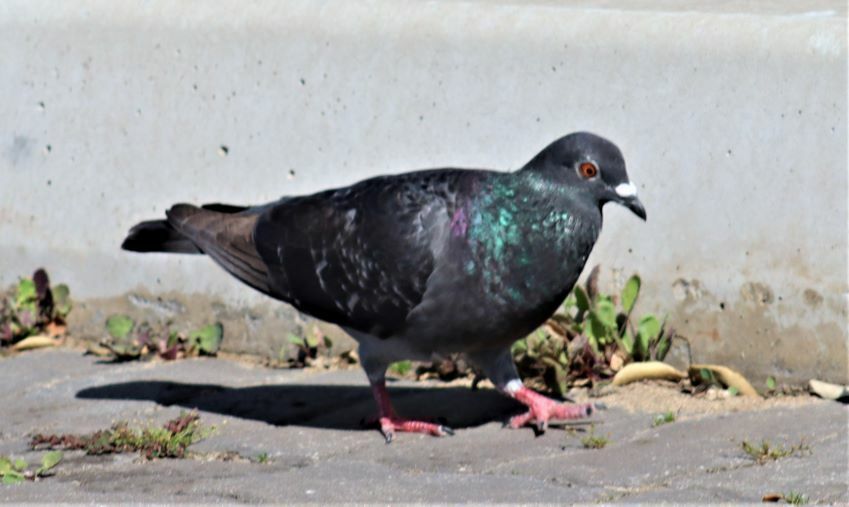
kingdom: Animalia
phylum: Chordata
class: Aves
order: Columbiformes
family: Columbidae
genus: Columba
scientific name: Columba livia
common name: Rock pigeon
